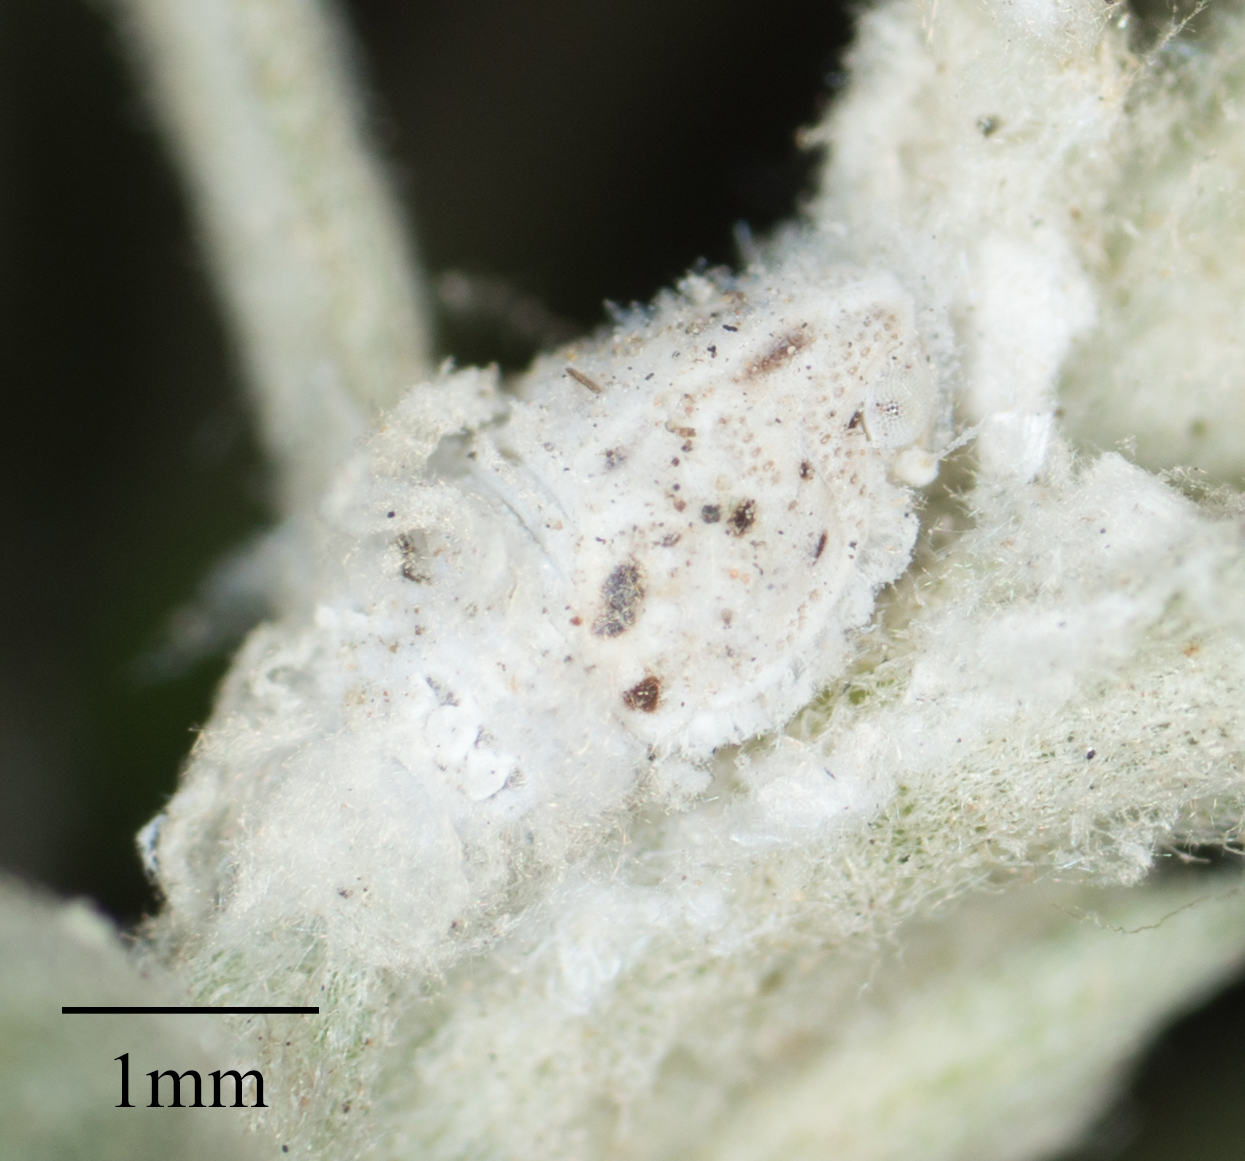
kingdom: Animalia
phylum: Arthropoda
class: Insecta
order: Hemiptera
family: Flatidae
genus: Siphanta
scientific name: Siphanta acuta
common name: Torpedo bug
